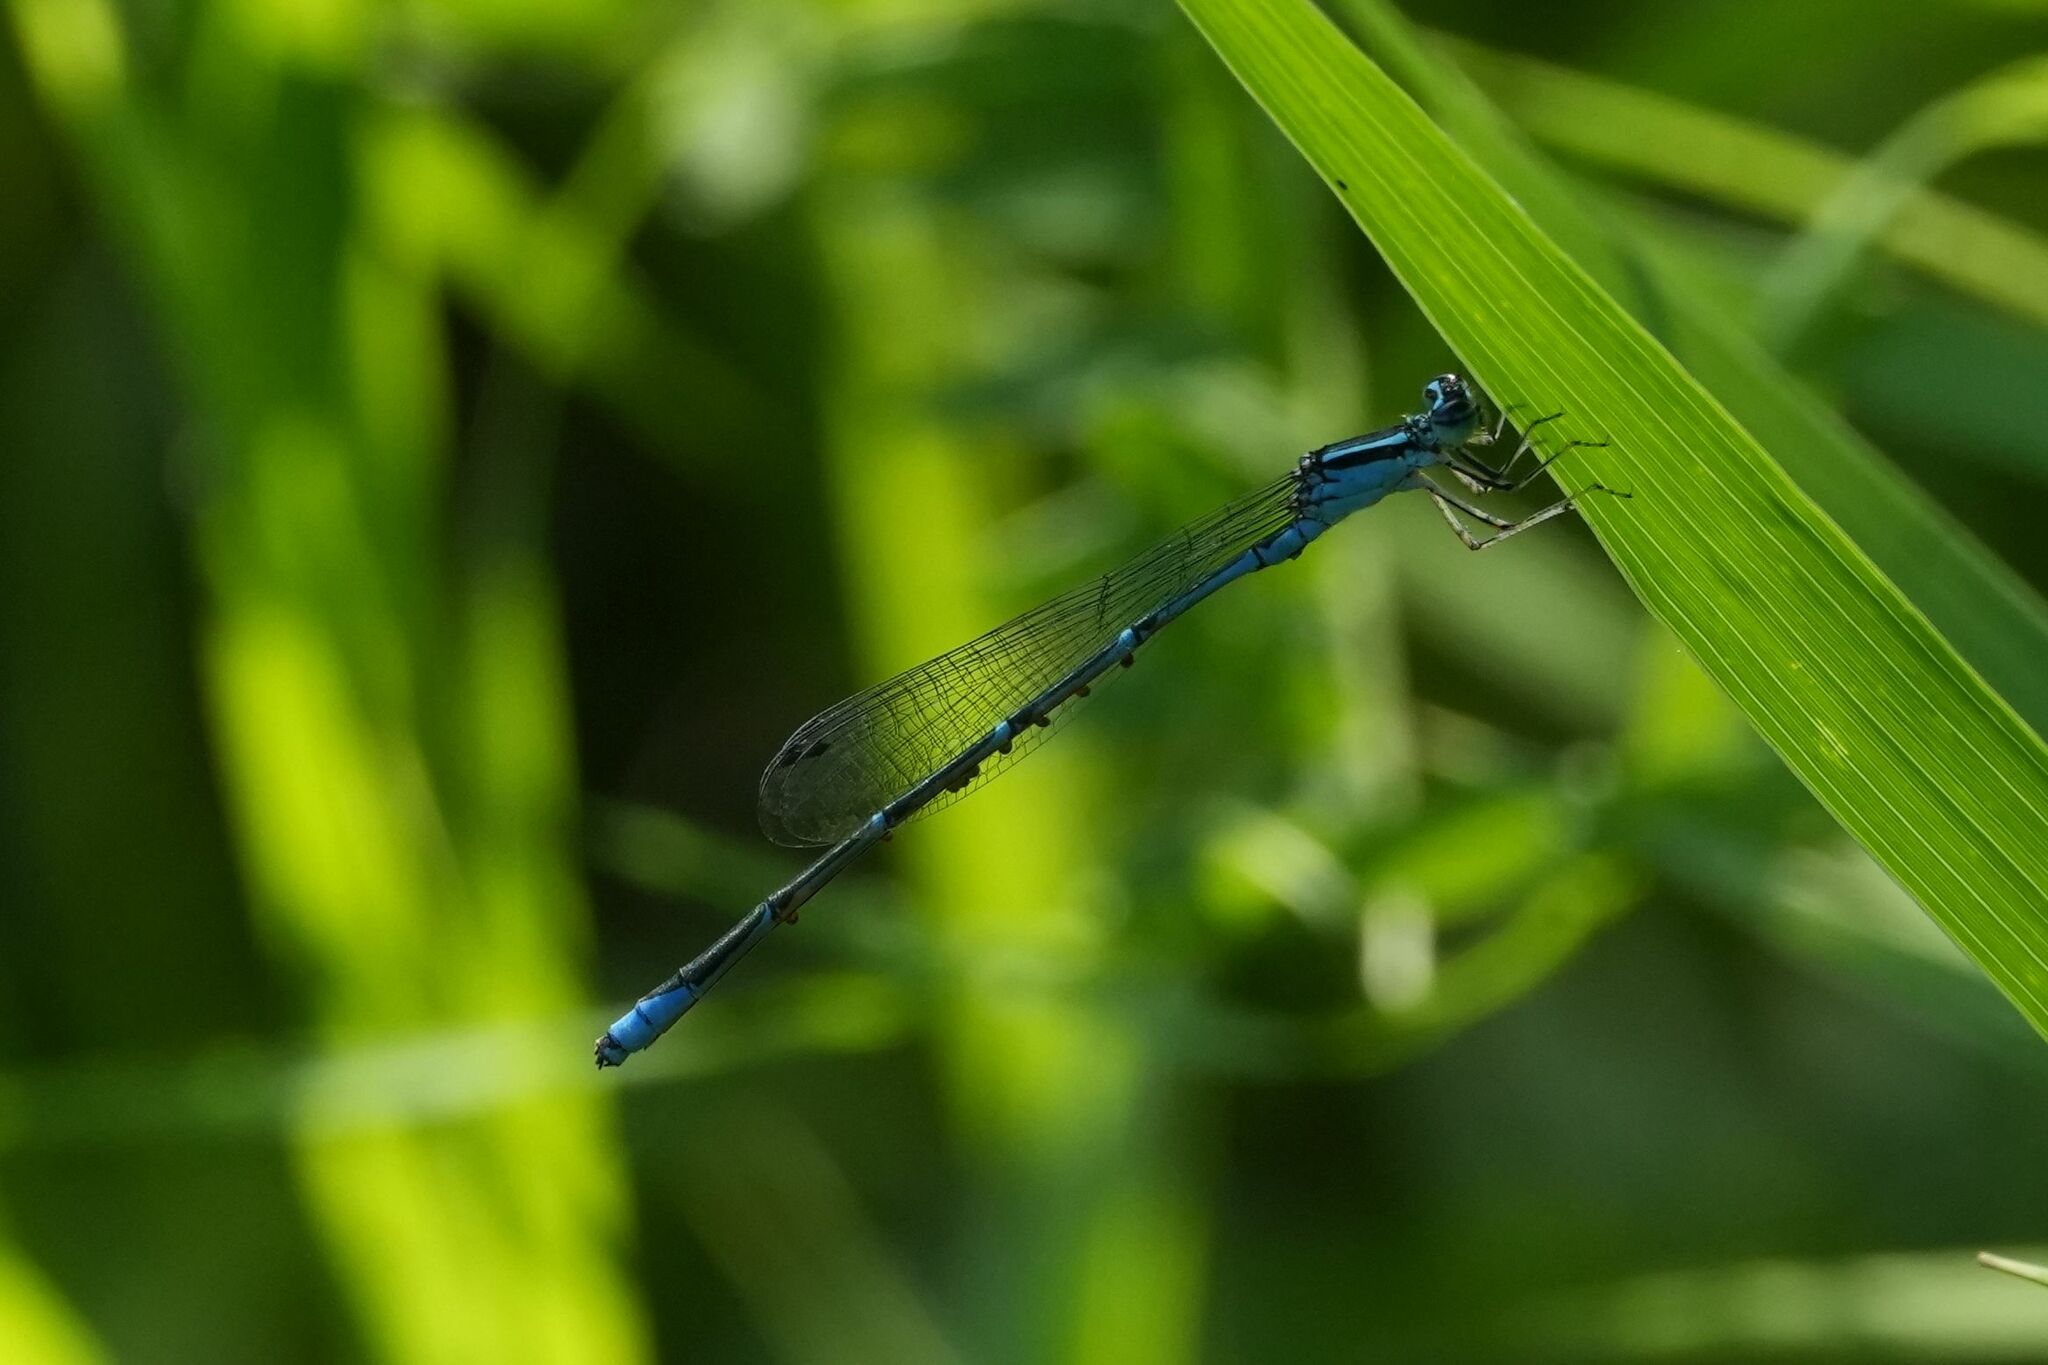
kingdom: Animalia
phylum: Arthropoda
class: Insecta
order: Odonata
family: Coenagrionidae
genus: Enallagma
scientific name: Enallagma exsulans
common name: Stream bluet
